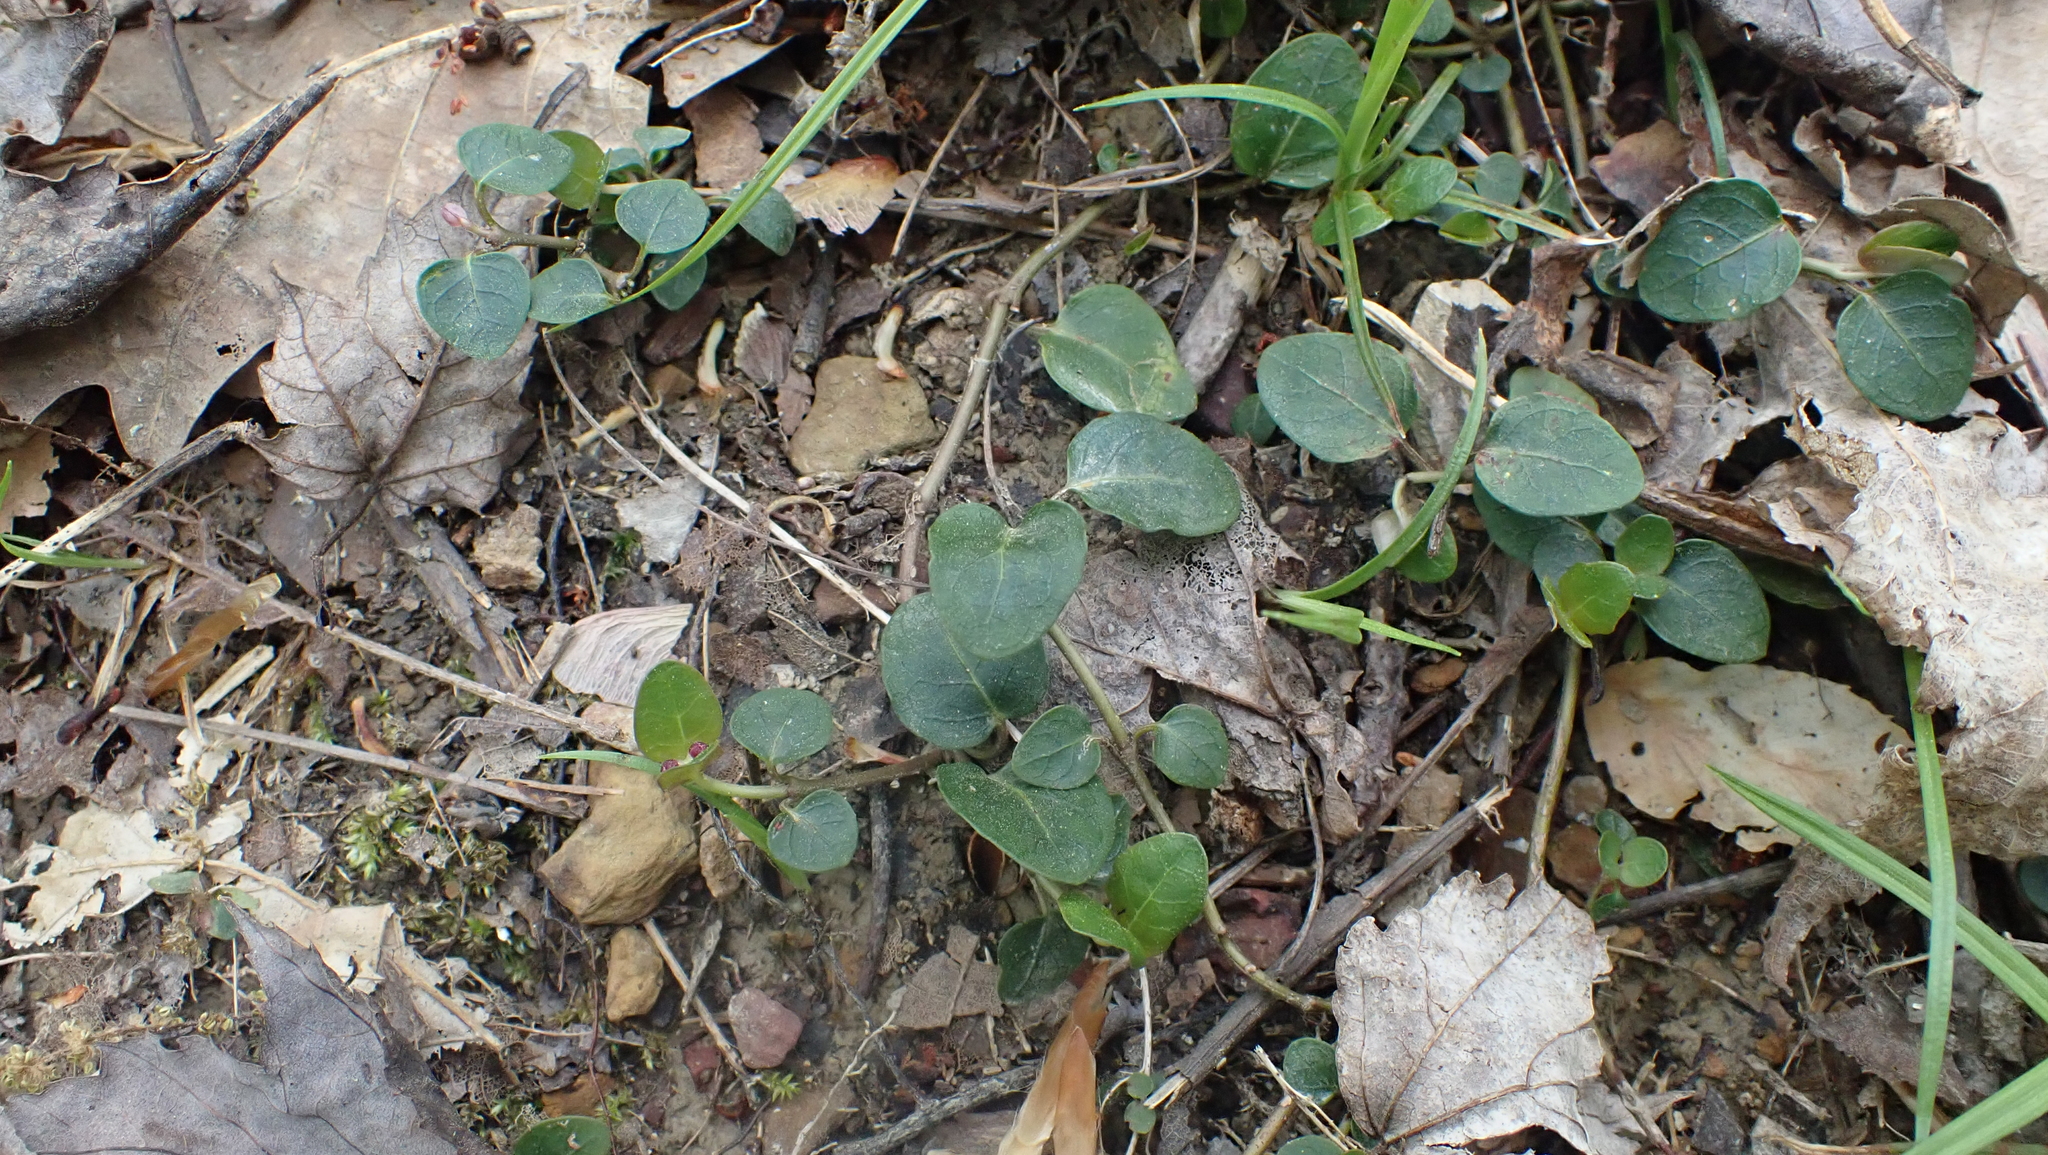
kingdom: Plantae
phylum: Tracheophyta
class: Magnoliopsida
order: Gentianales
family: Rubiaceae
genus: Mitchella
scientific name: Mitchella repens
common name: Partridge-berry
